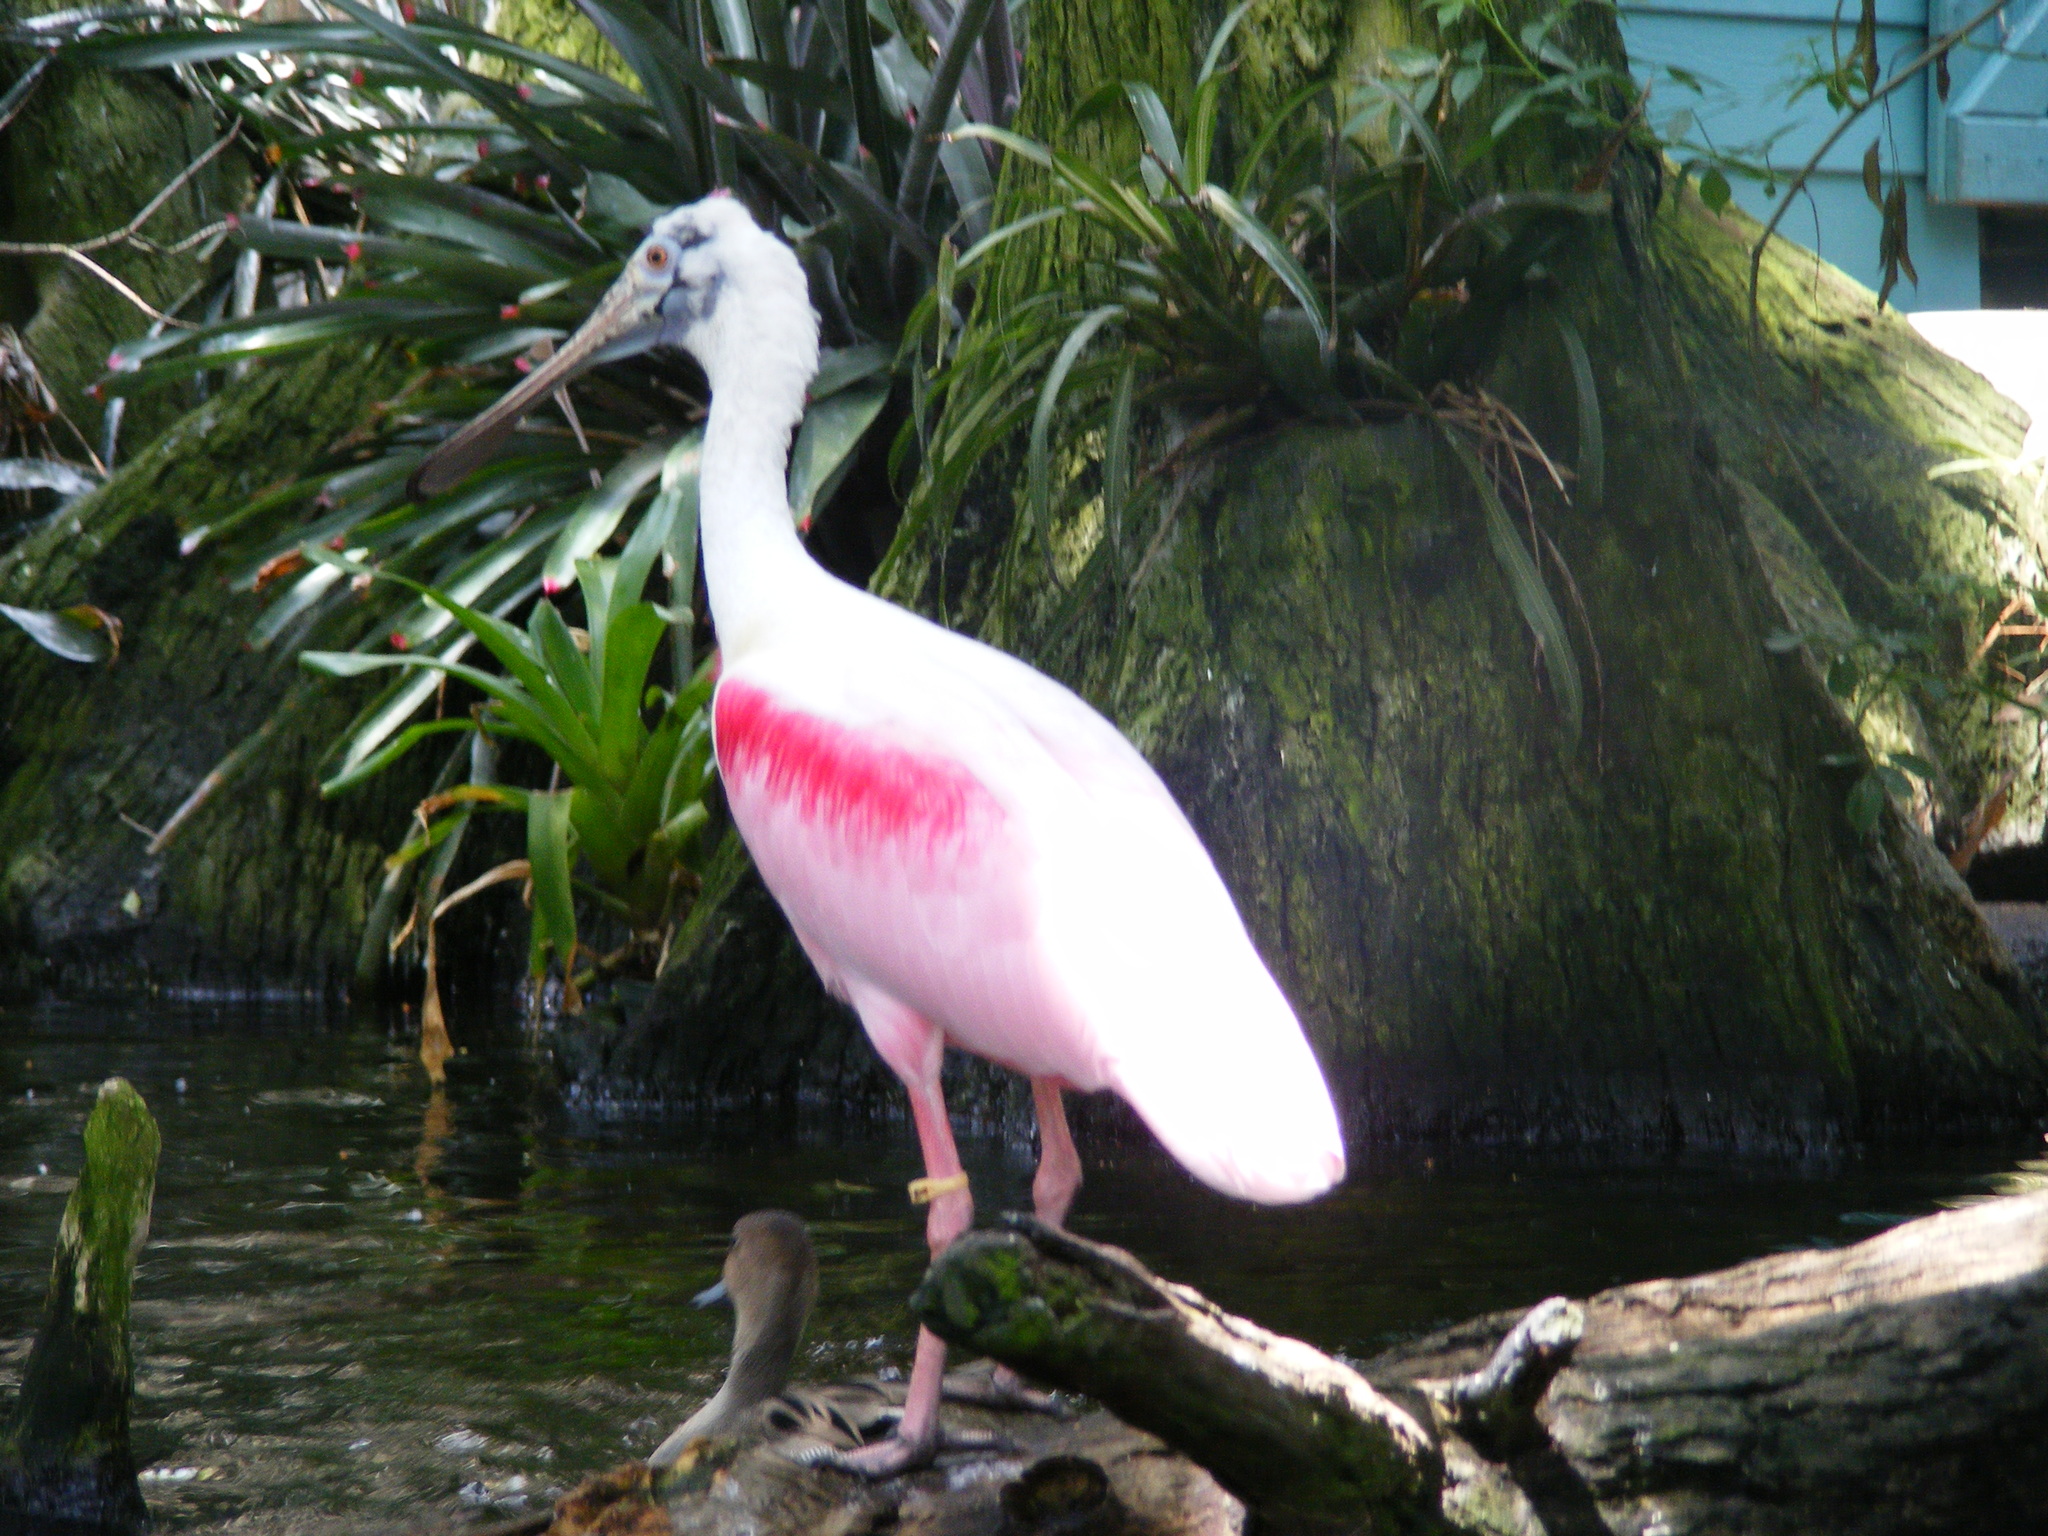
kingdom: Animalia
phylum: Chordata
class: Aves
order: Pelecaniformes
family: Threskiornithidae
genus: Platalea
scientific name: Platalea ajaja
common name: Roseate spoonbill
